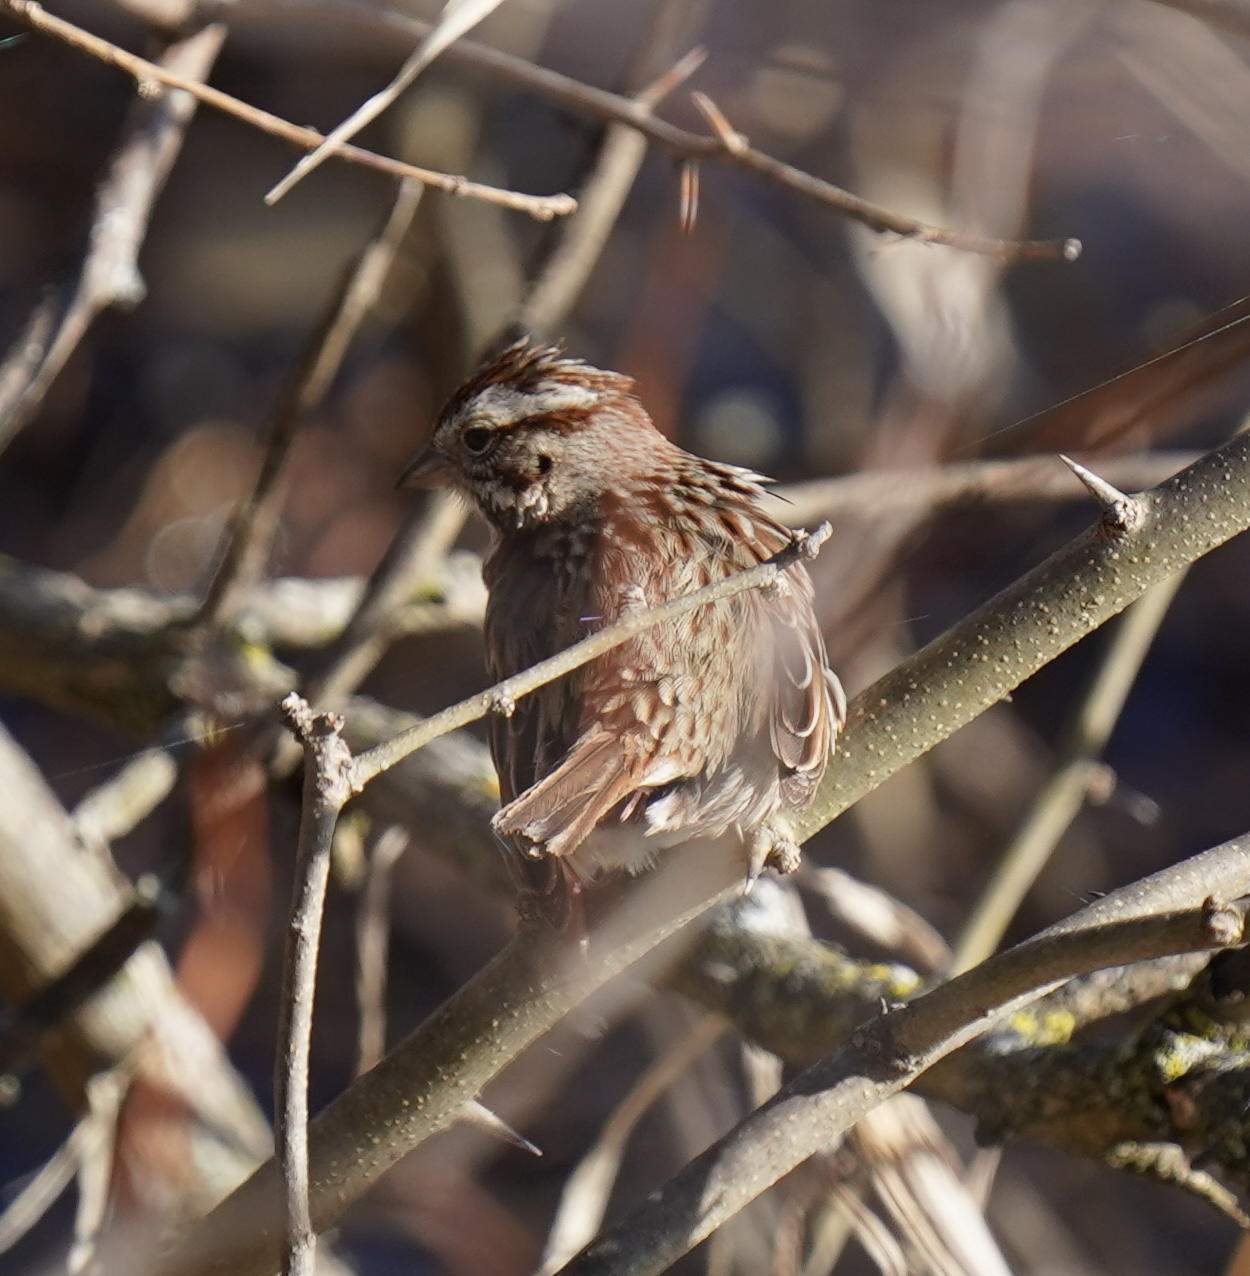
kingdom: Animalia
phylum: Chordata
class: Aves
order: Passeriformes
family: Passerellidae
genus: Melospiza
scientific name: Melospiza melodia
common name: Song sparrow
